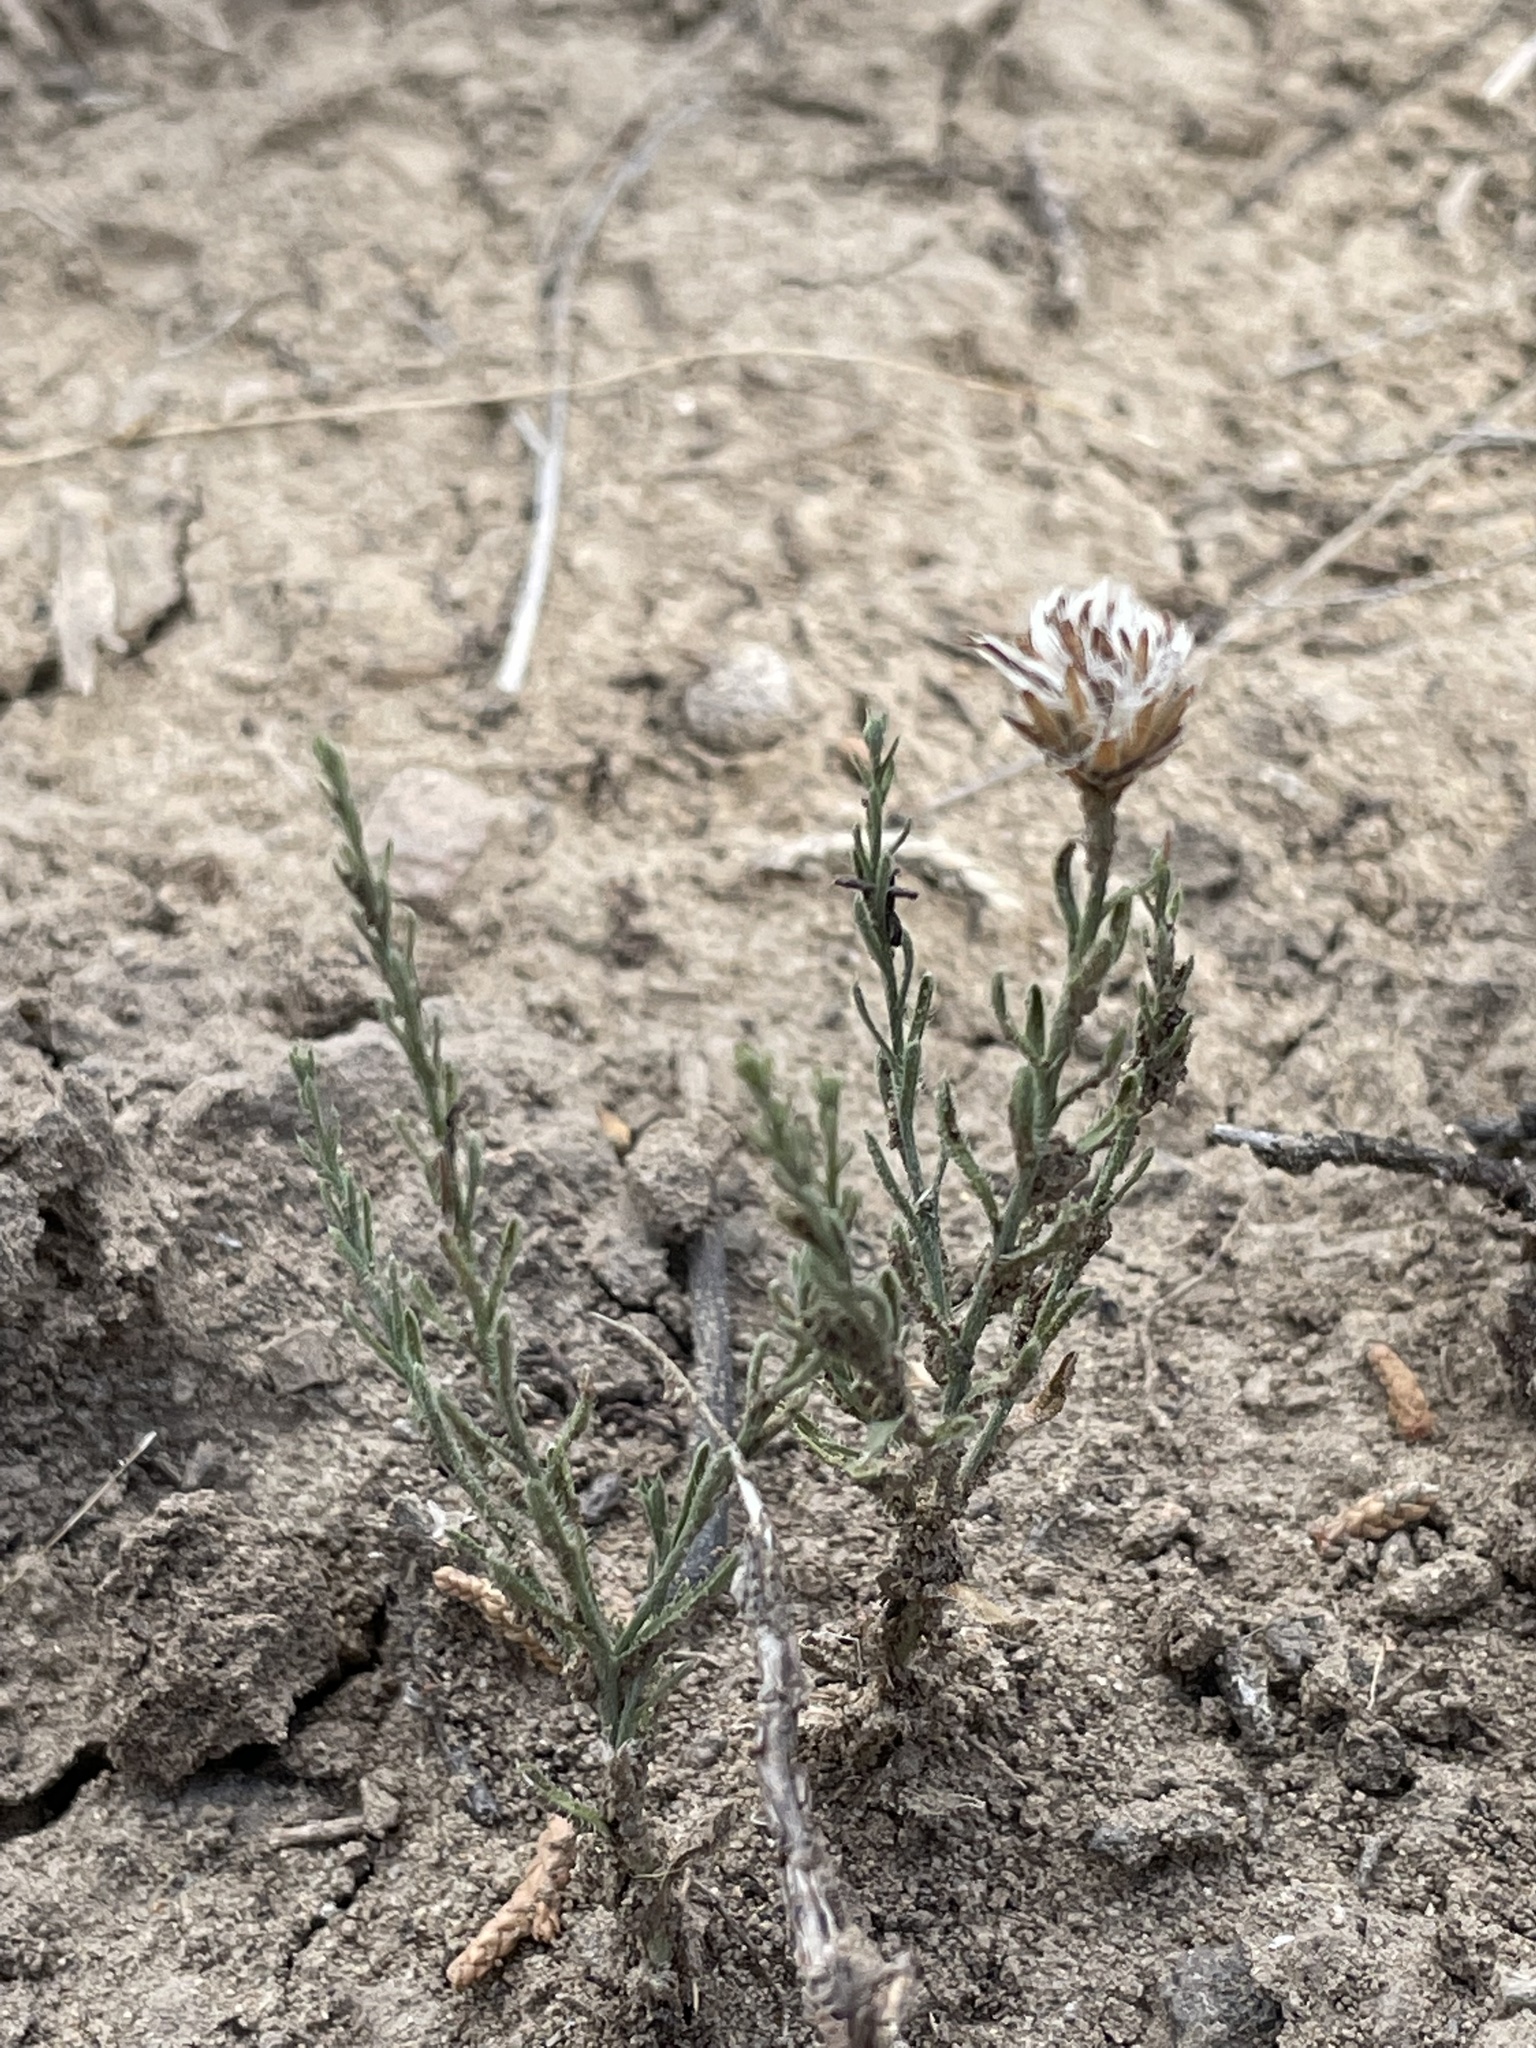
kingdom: Plantae
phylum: Tracheophyta
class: Magnoliopsida
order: Asterales
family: Asteraceae
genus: Chaetopappa
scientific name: Chaetopappa ericoides
